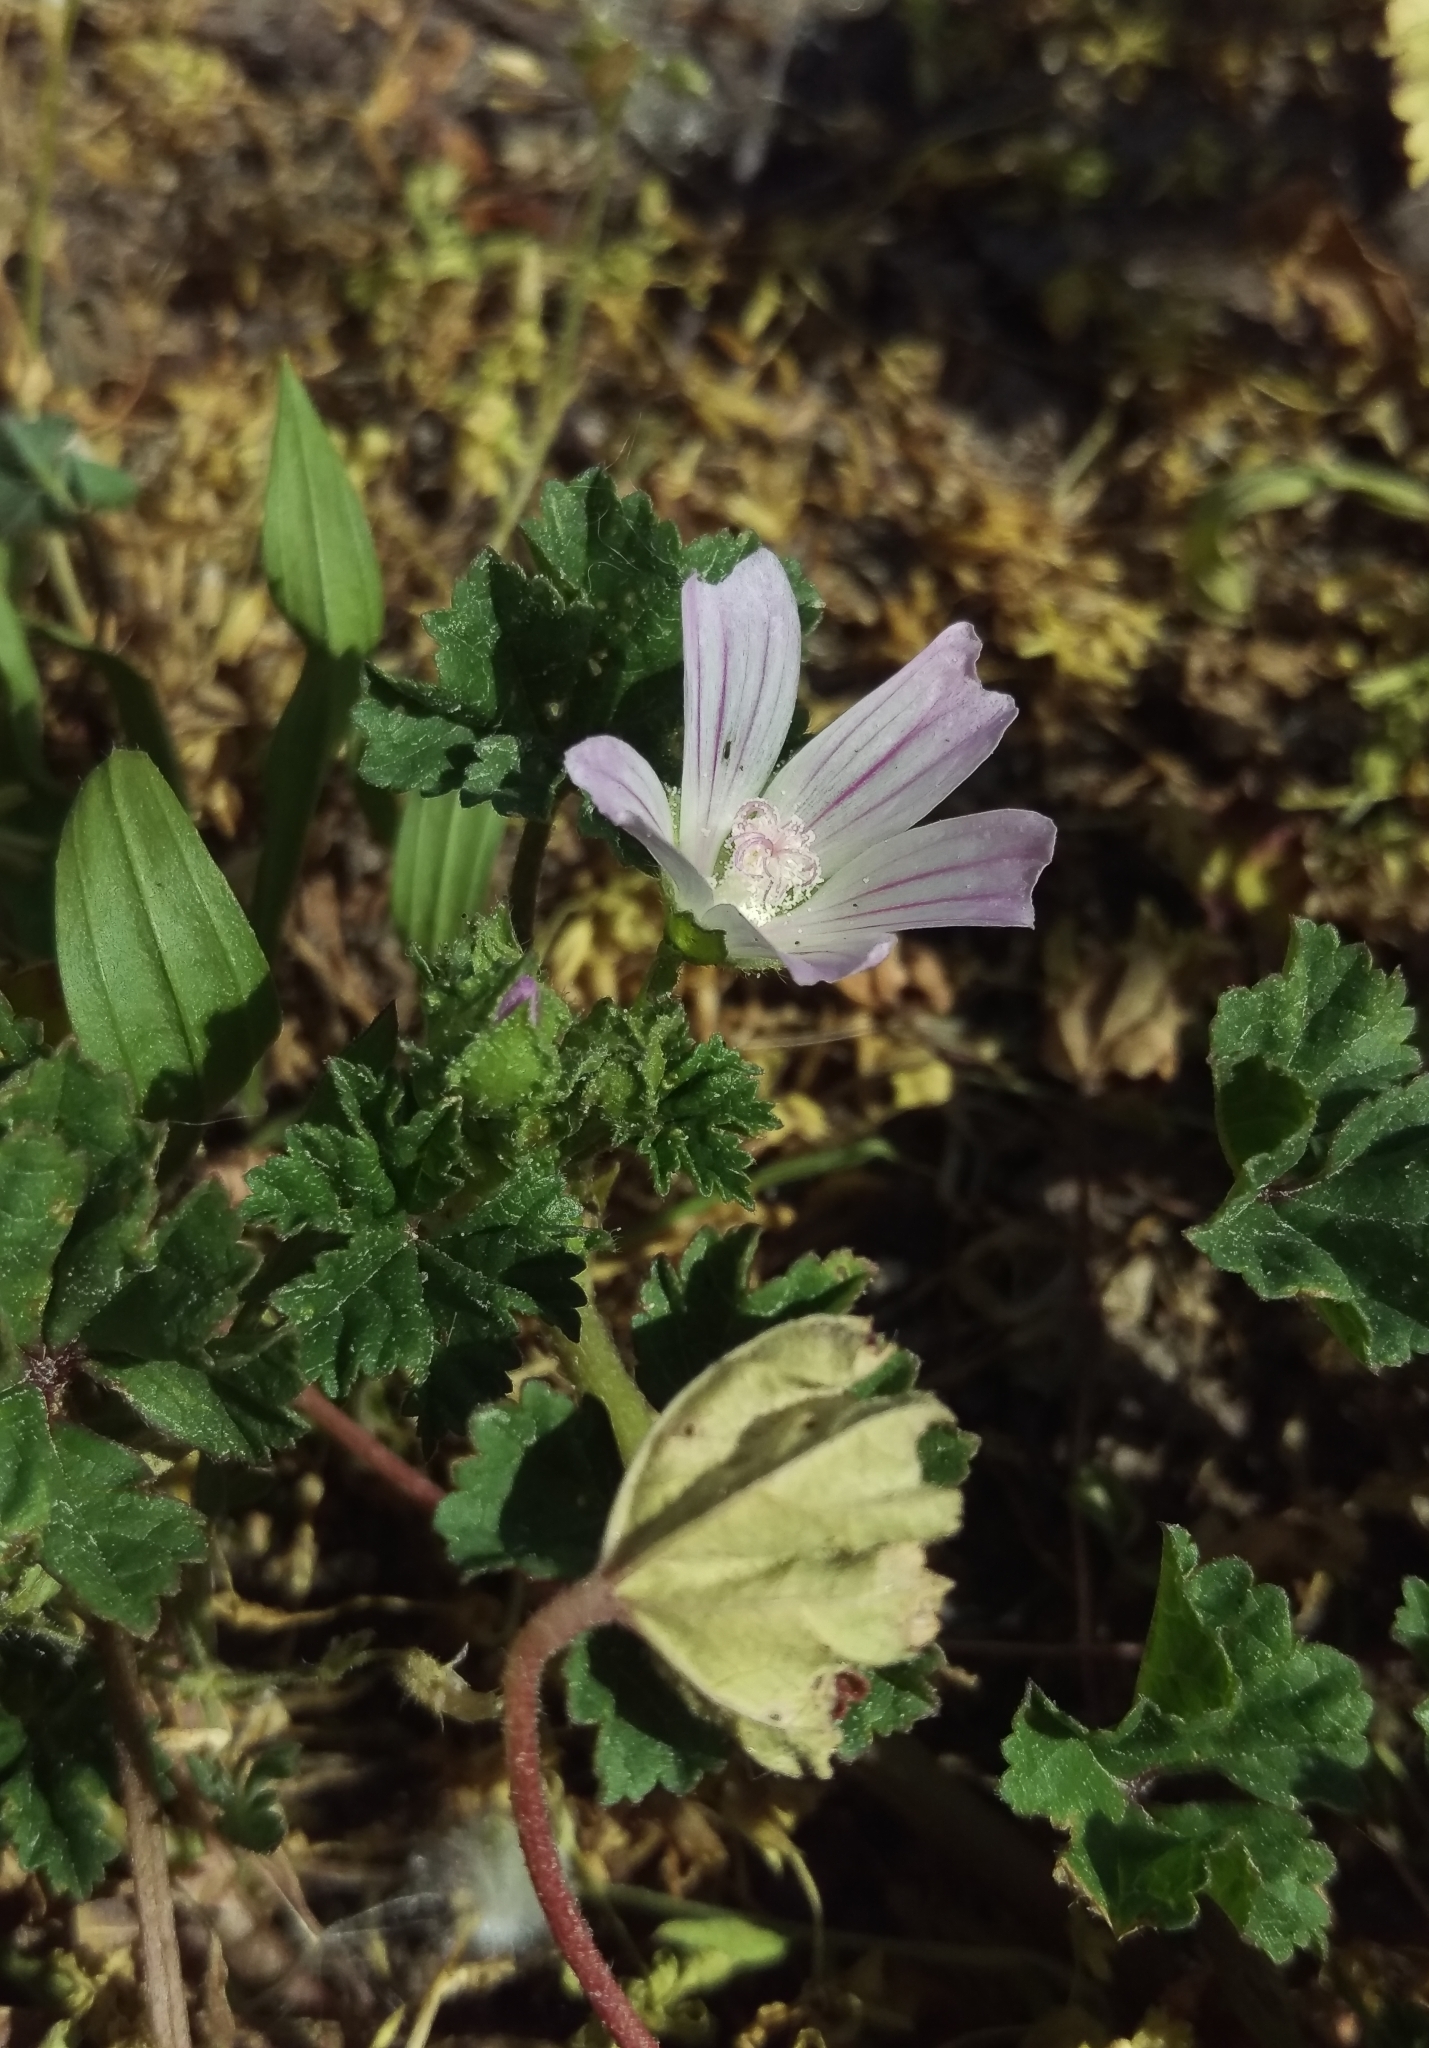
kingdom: Plantae
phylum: Tracheophyta
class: Magnoliopsida
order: Malvales
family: Malvaceae
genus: Malva
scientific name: Malva neglecta
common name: Common mallow
